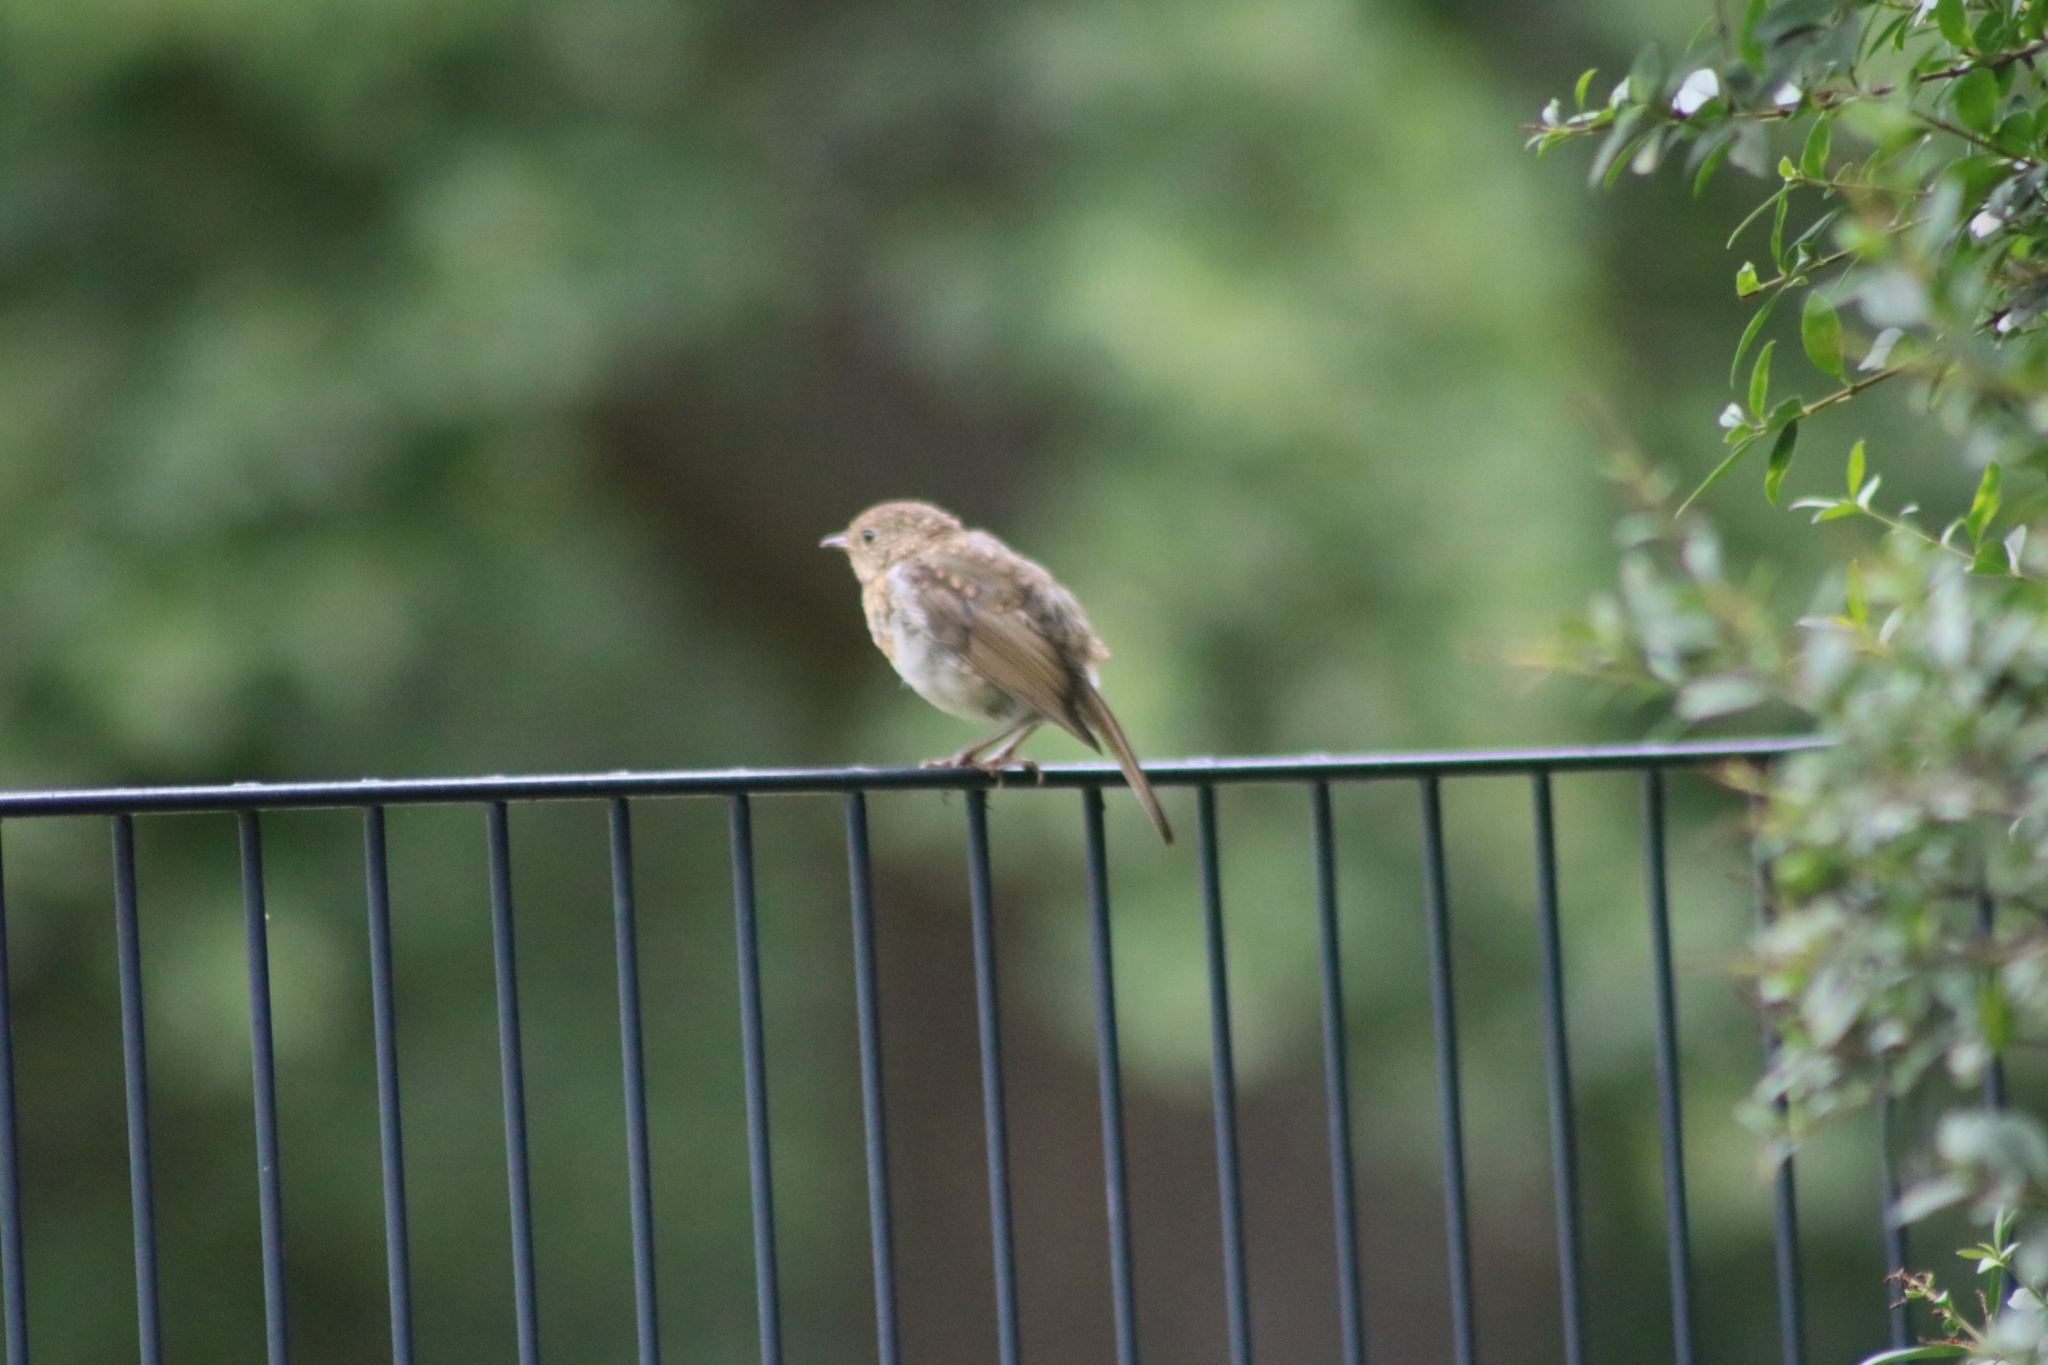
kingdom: Animalia
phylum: Chordata
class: Aves
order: Passeriformes
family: Muscicapidae
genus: Erithacus
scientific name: Erithacus rubecula
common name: European robin
